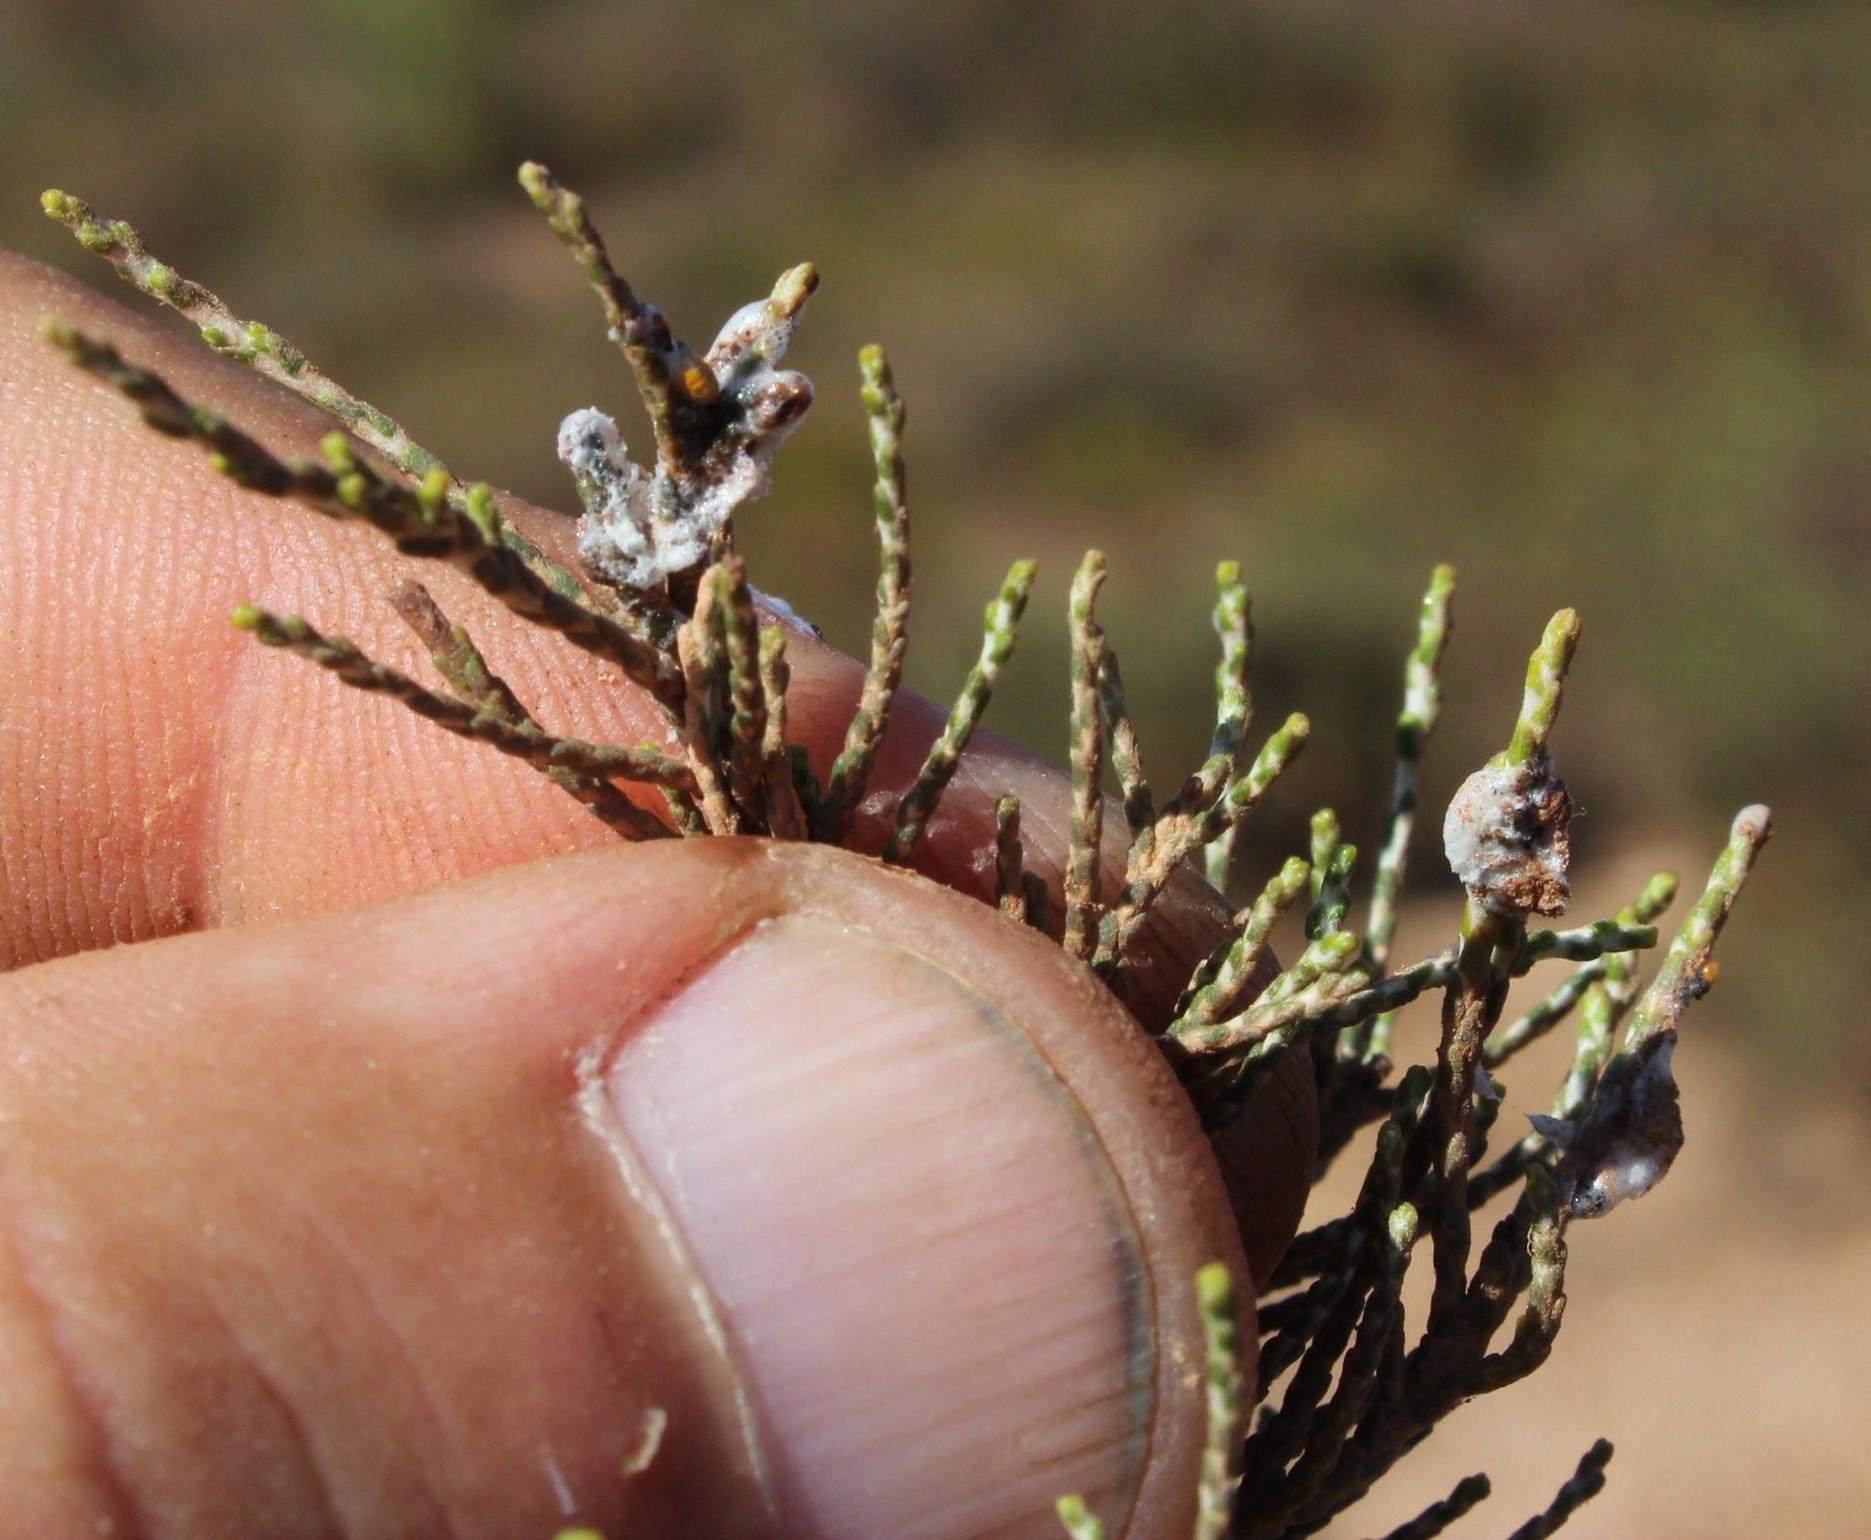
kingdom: Animalia
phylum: Arthropoda
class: Insecta
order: Hemiptera
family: Aphrophoridae
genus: Tremapterus
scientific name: Tremapterus
